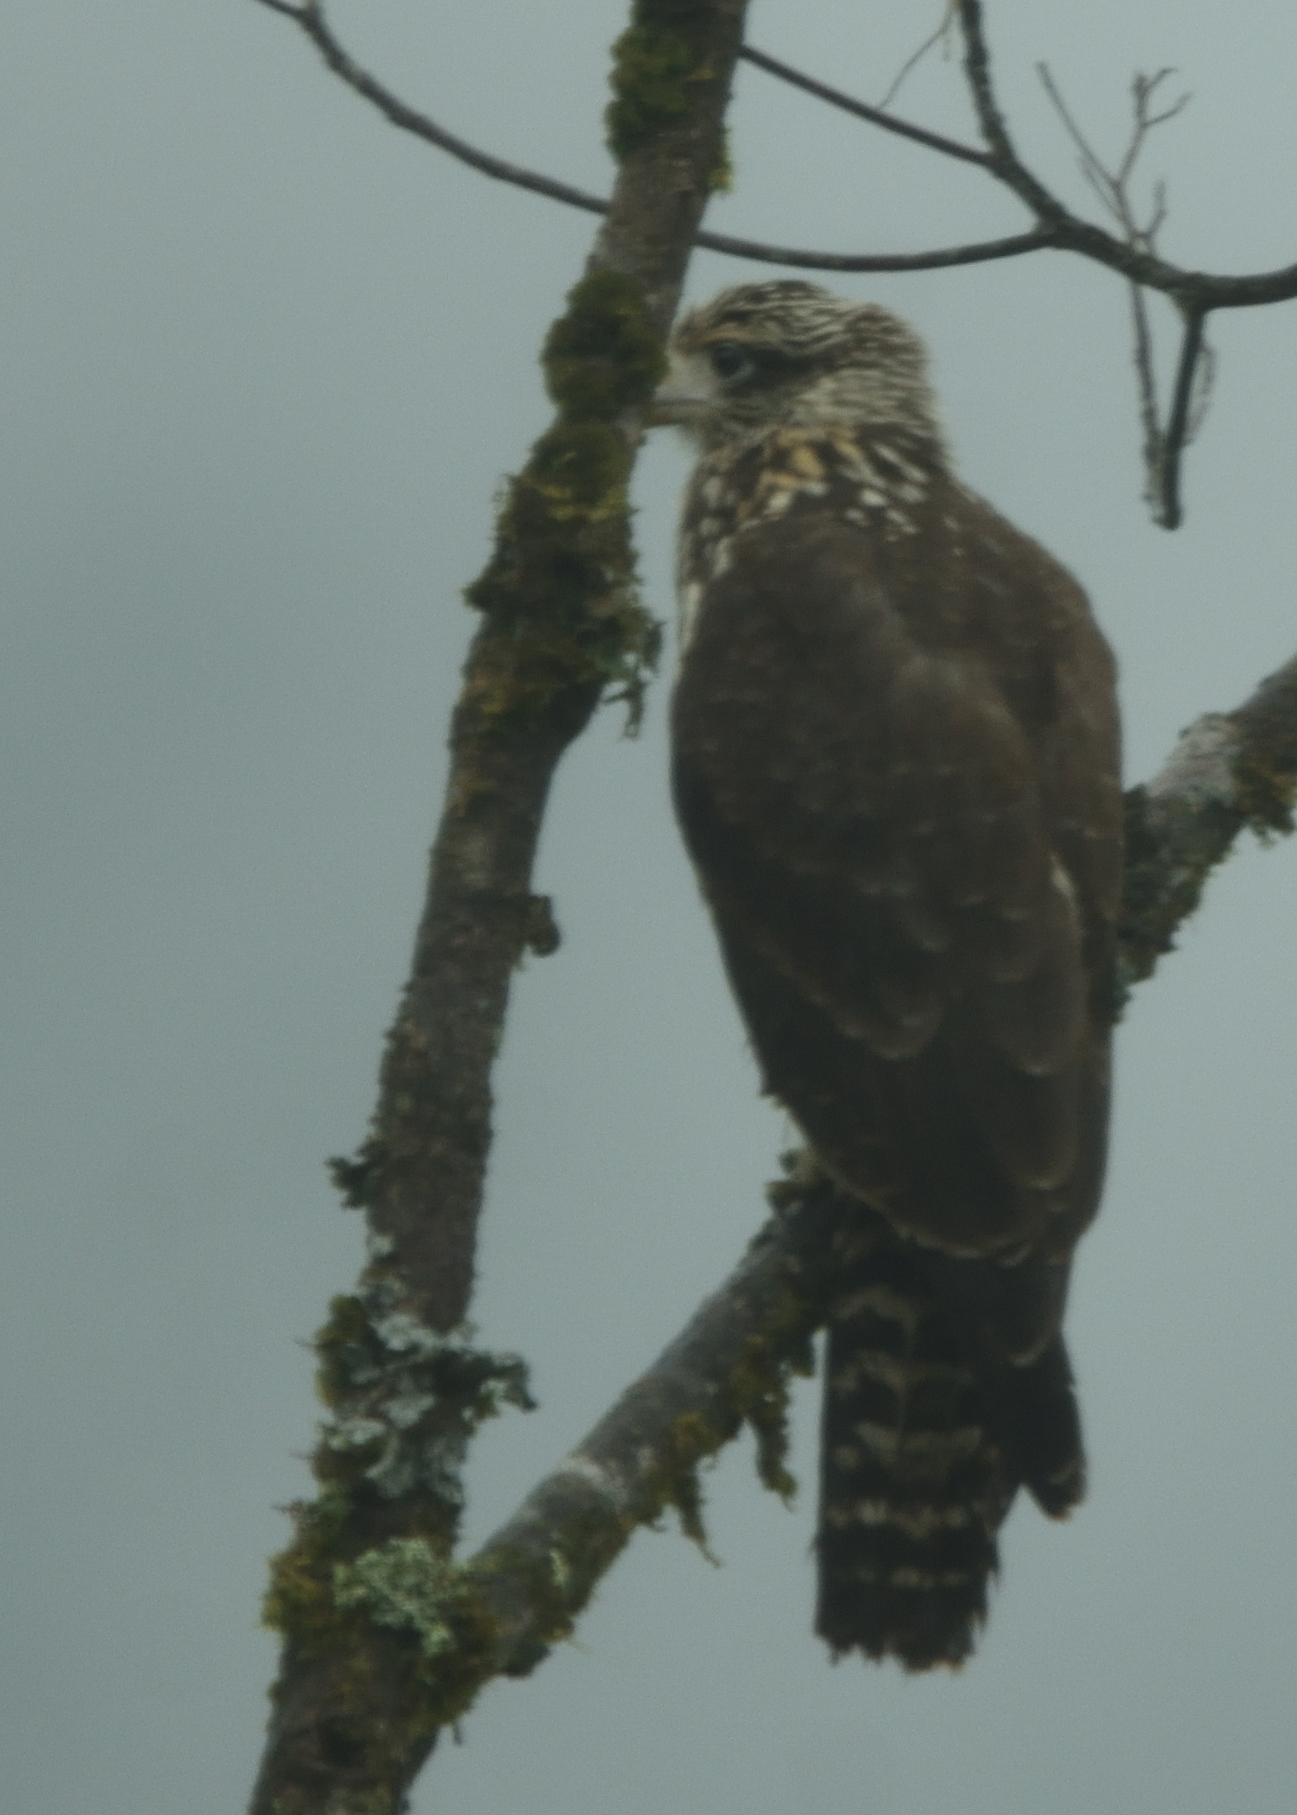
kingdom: Animalia
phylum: Chordata
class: Aves
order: Falconiformes
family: Falconidae
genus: Daptrius
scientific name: Daptrius
